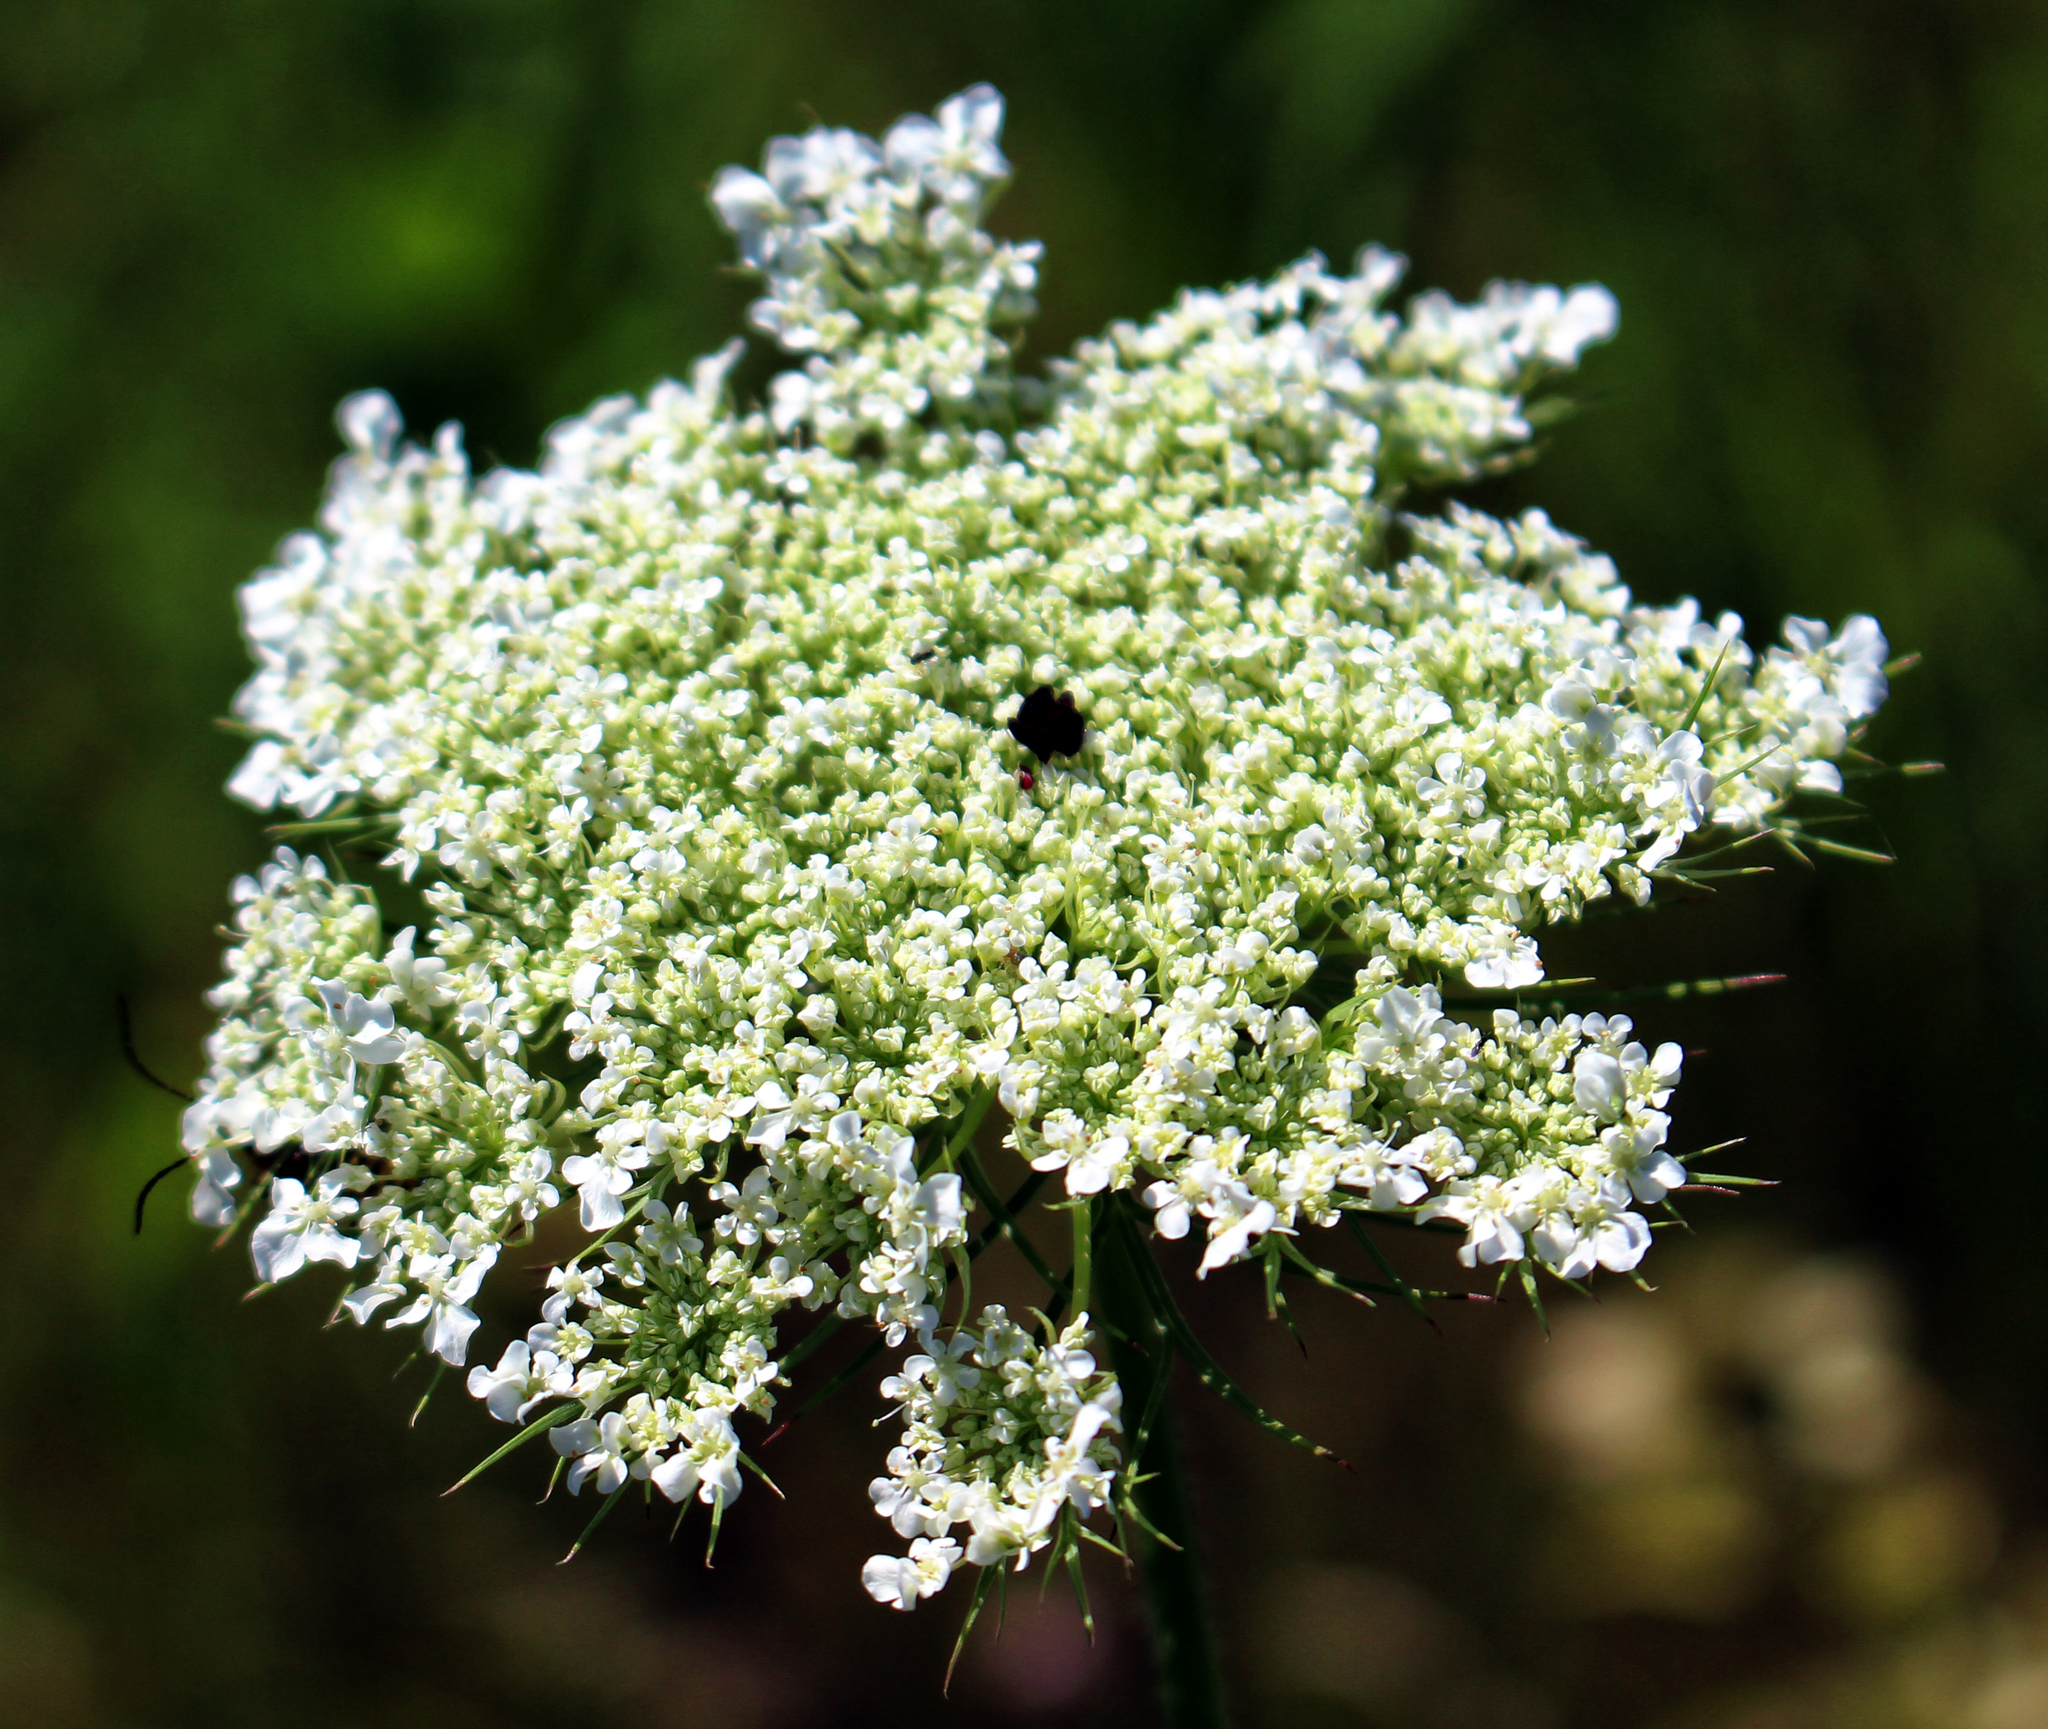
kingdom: Plantae
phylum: Tracheophyta
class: Magnoliopsida
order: Apiales
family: Apiaceae
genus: Daucus
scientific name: Daucus carota
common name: Wild carrot
